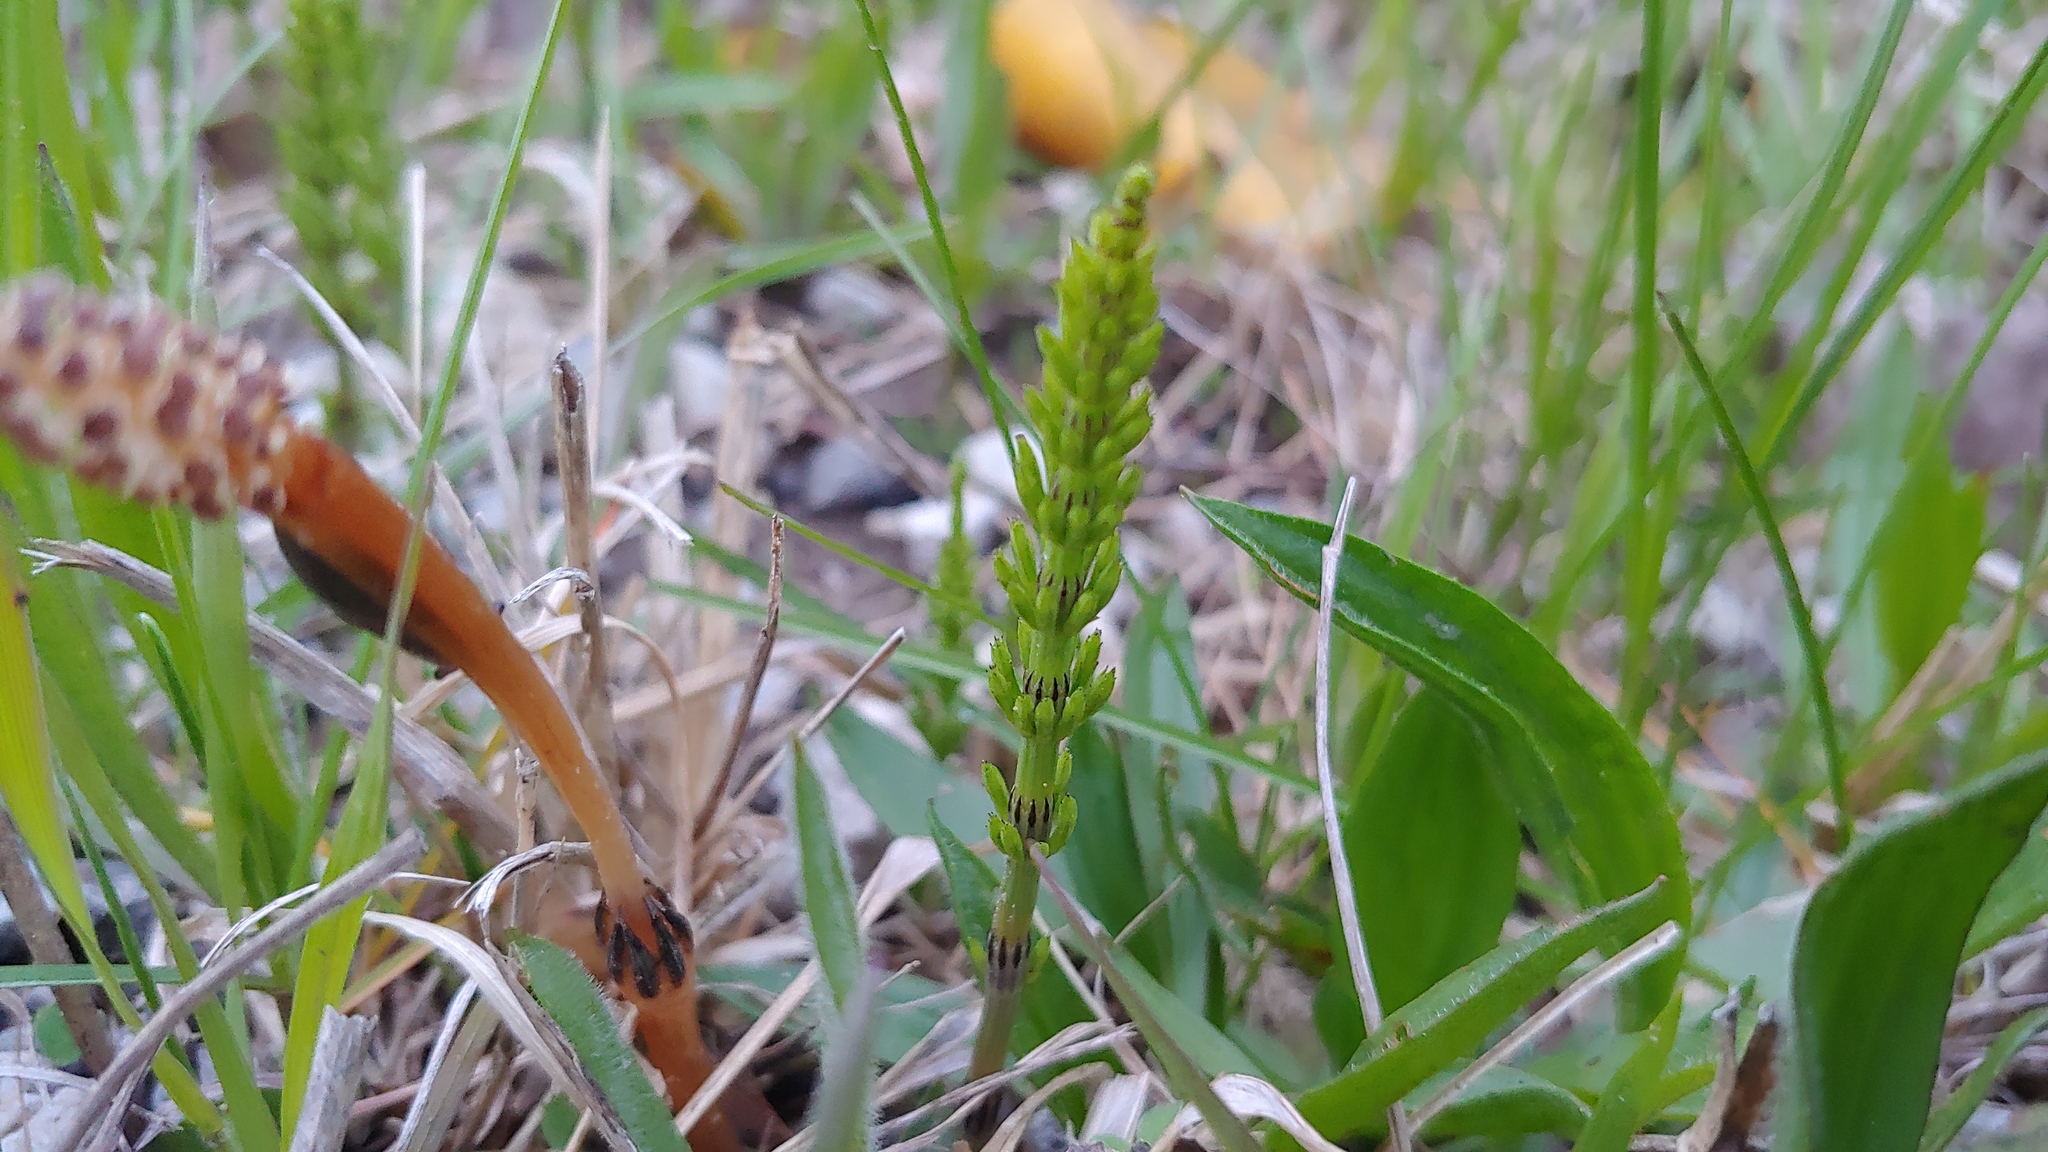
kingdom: Plantae
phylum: Tracheophyta
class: Polypodiopsida
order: Equisetales
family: Equisetaceae
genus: Equisetum
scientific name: Equisetum arvense
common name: Field horsetail
